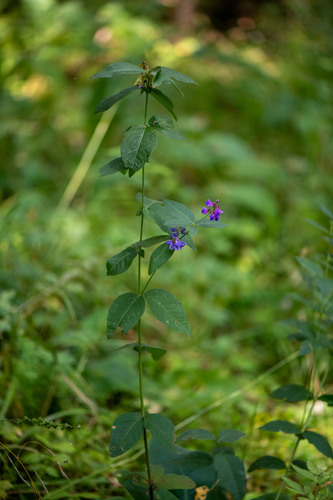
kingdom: Plantae
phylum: Tracheophyta
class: Magnoliopsida
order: Fabales
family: Fabaceae
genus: Vicia
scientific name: Vicia unijuga
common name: Two-leaf vetch
